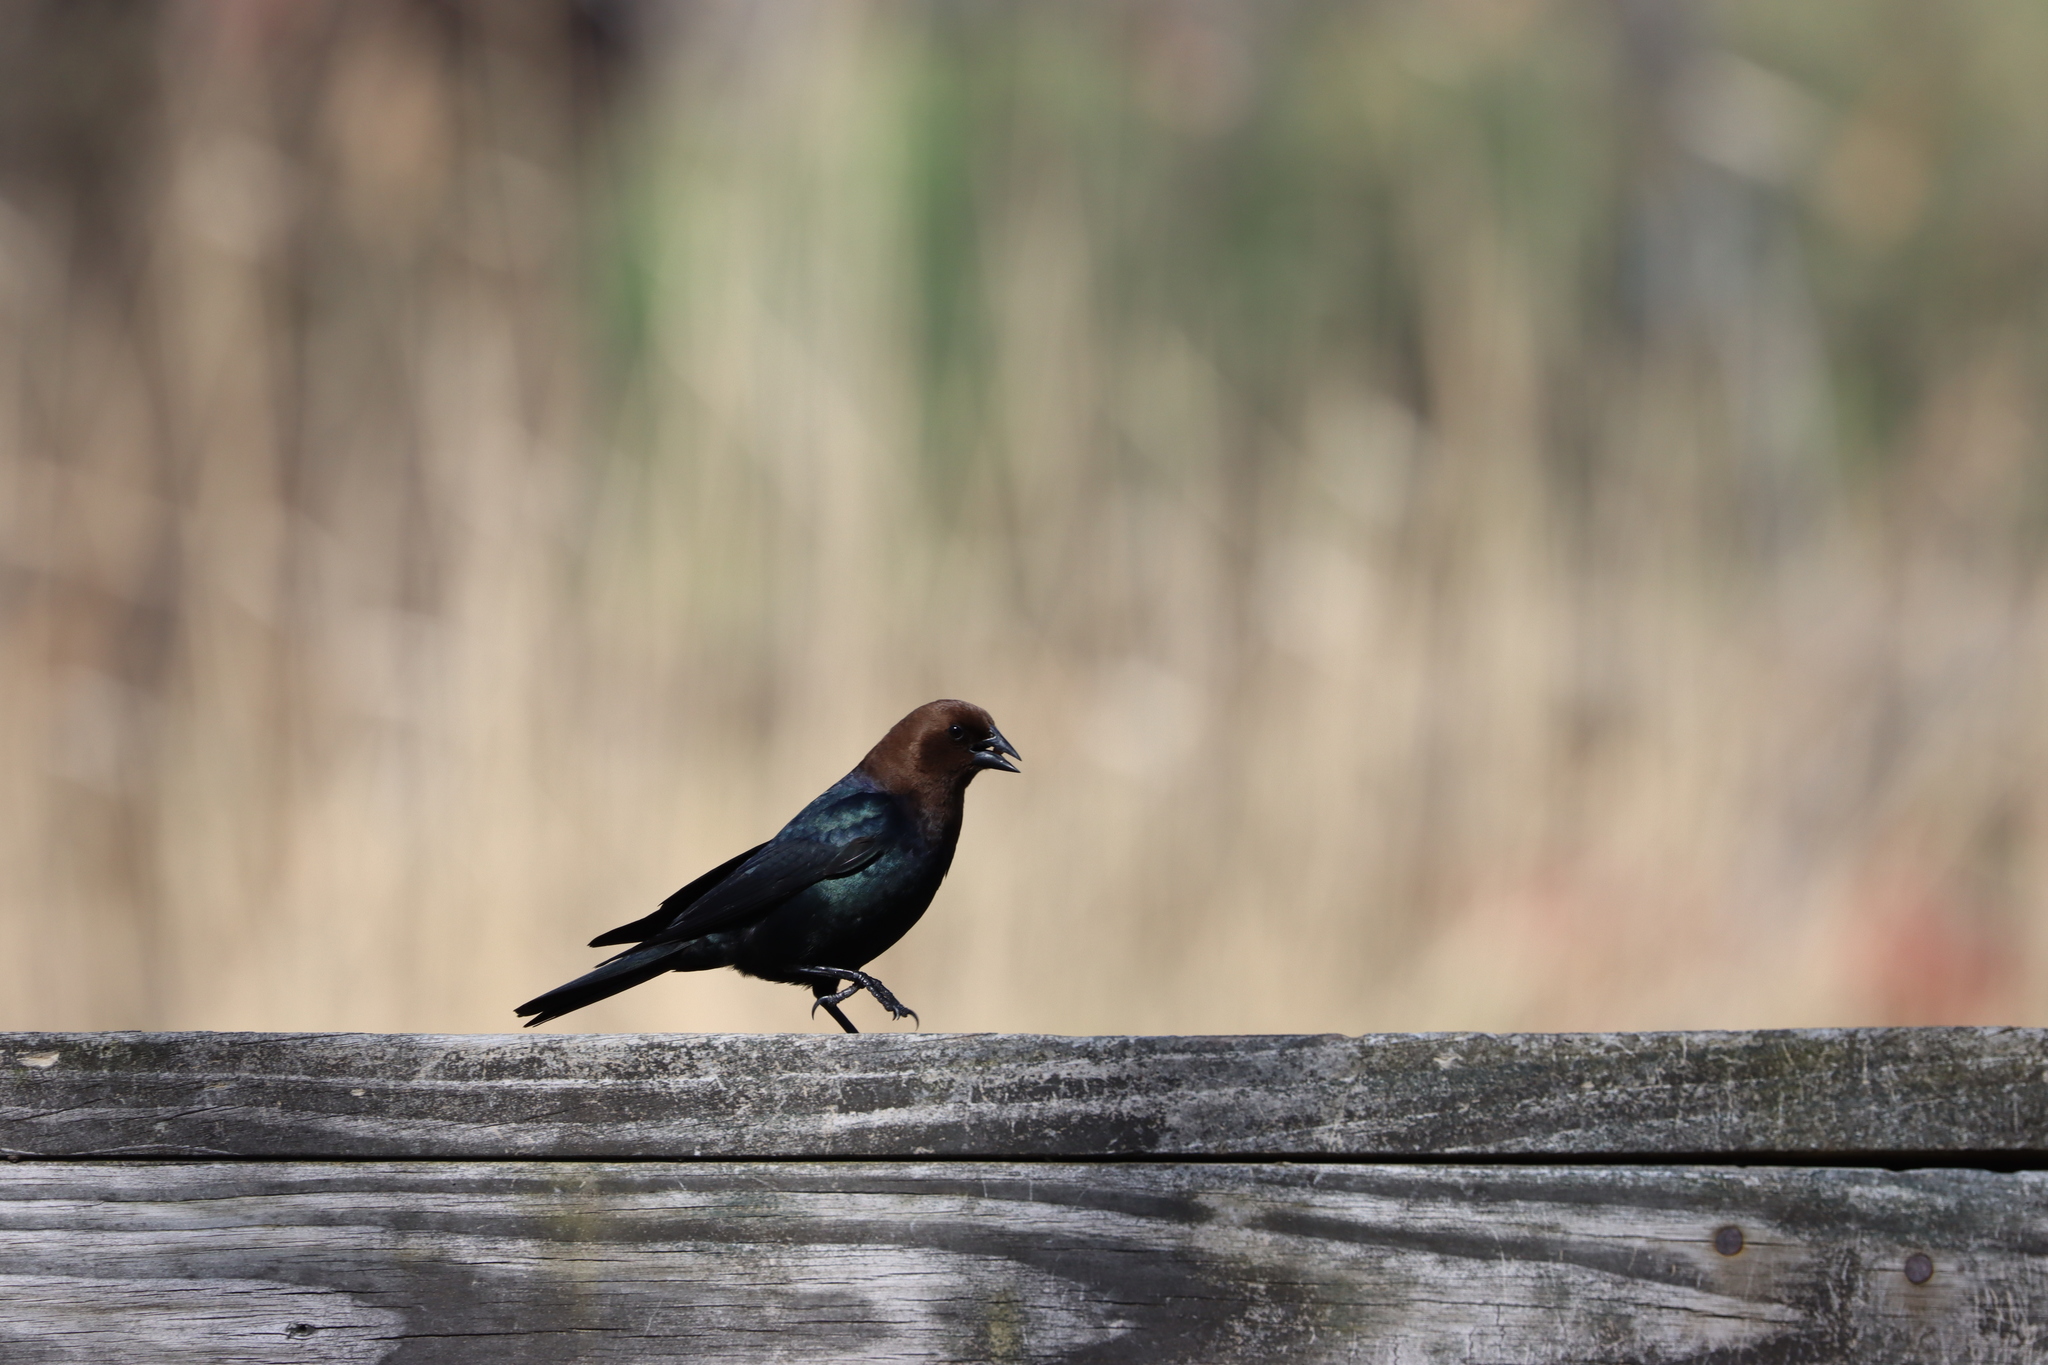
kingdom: Animalia
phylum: Chordata
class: Aves
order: Passeriformes
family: Icteridae
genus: Molothrus
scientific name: Molothrus ater
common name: Brown-headed cowbird
